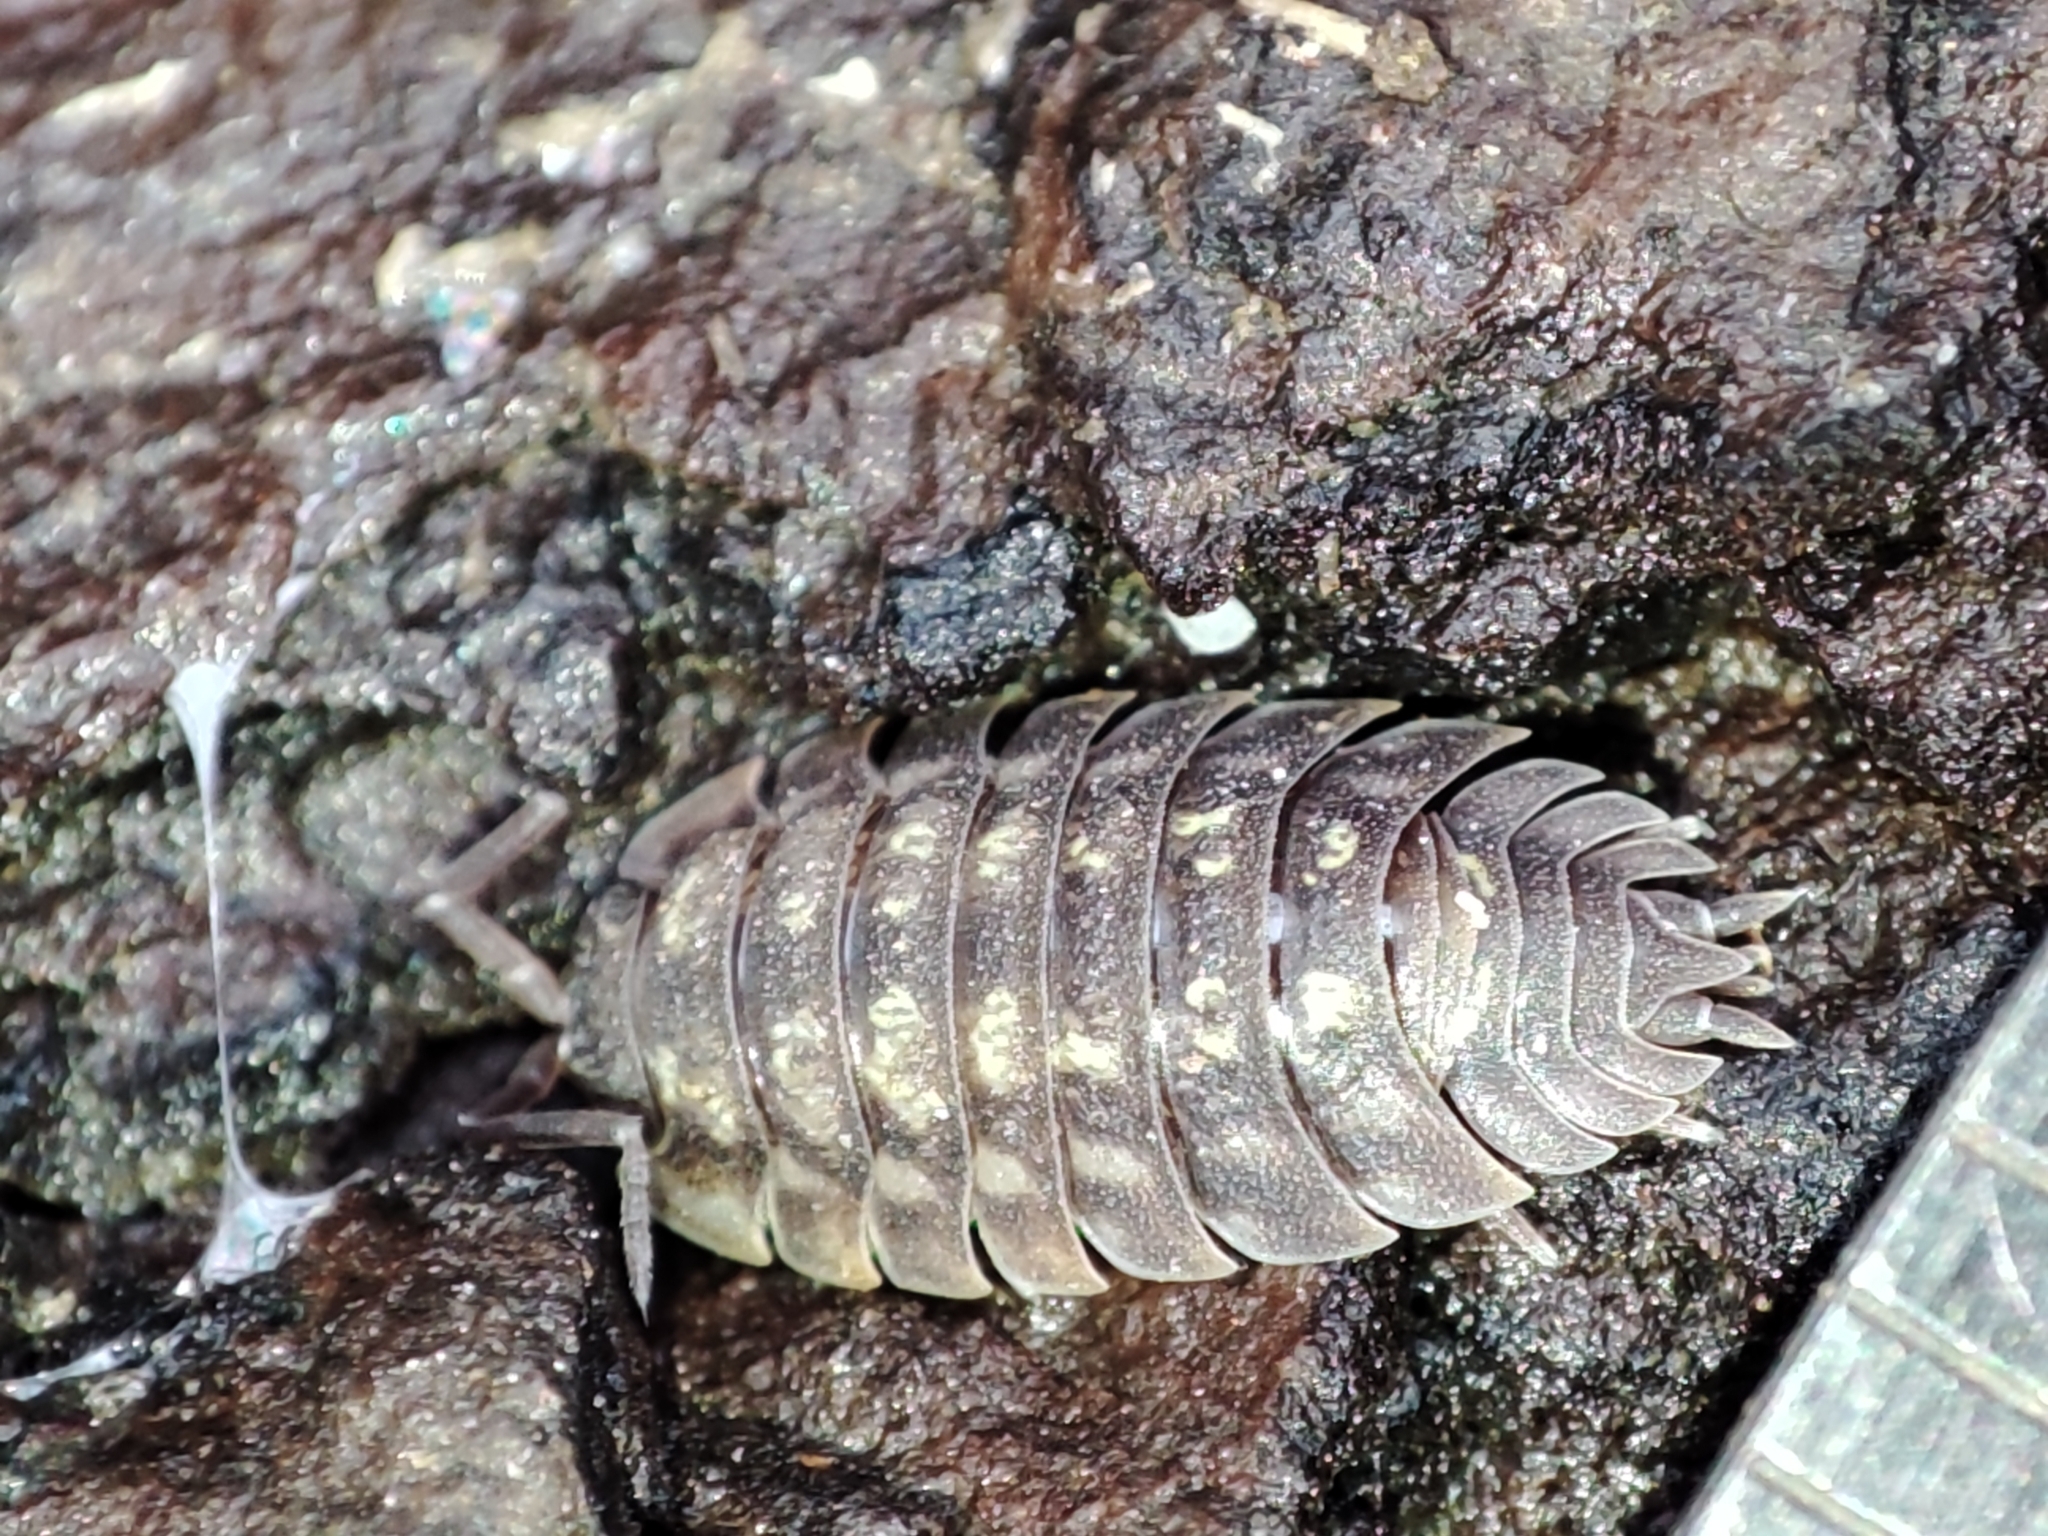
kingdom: Animalia
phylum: Arthropoda
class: Malacostraca
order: Isopoda
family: Oniscidae
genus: Oniscus
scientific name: Oniscus asellus
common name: Common shiny woodlouse
